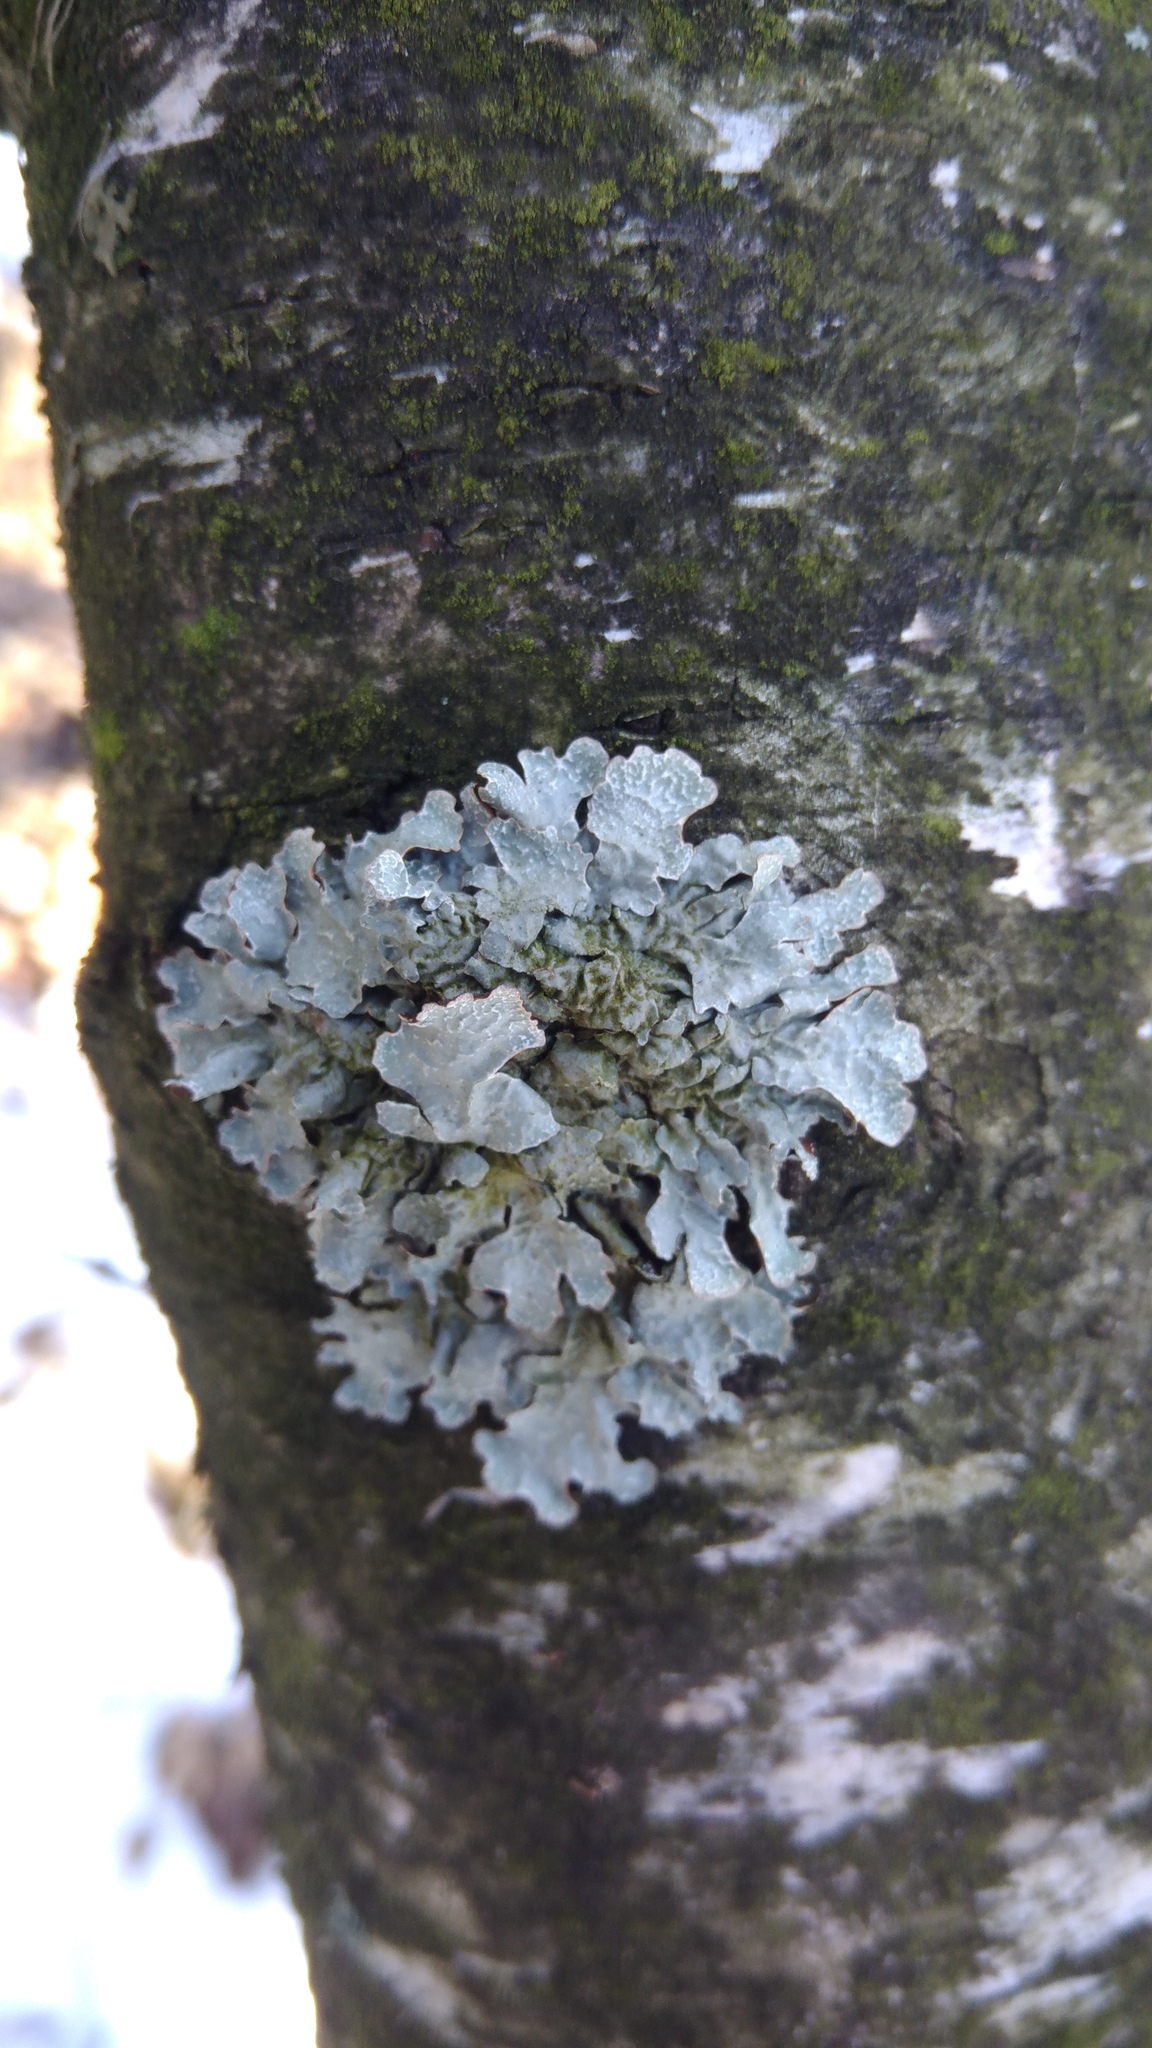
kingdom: Fungi
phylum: Ascomycota
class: Lecanoromycetes
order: Lecanorales
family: Parmeliaceae
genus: Parmelia
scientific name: Parmelia sulcata
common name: Netted shield lichen
